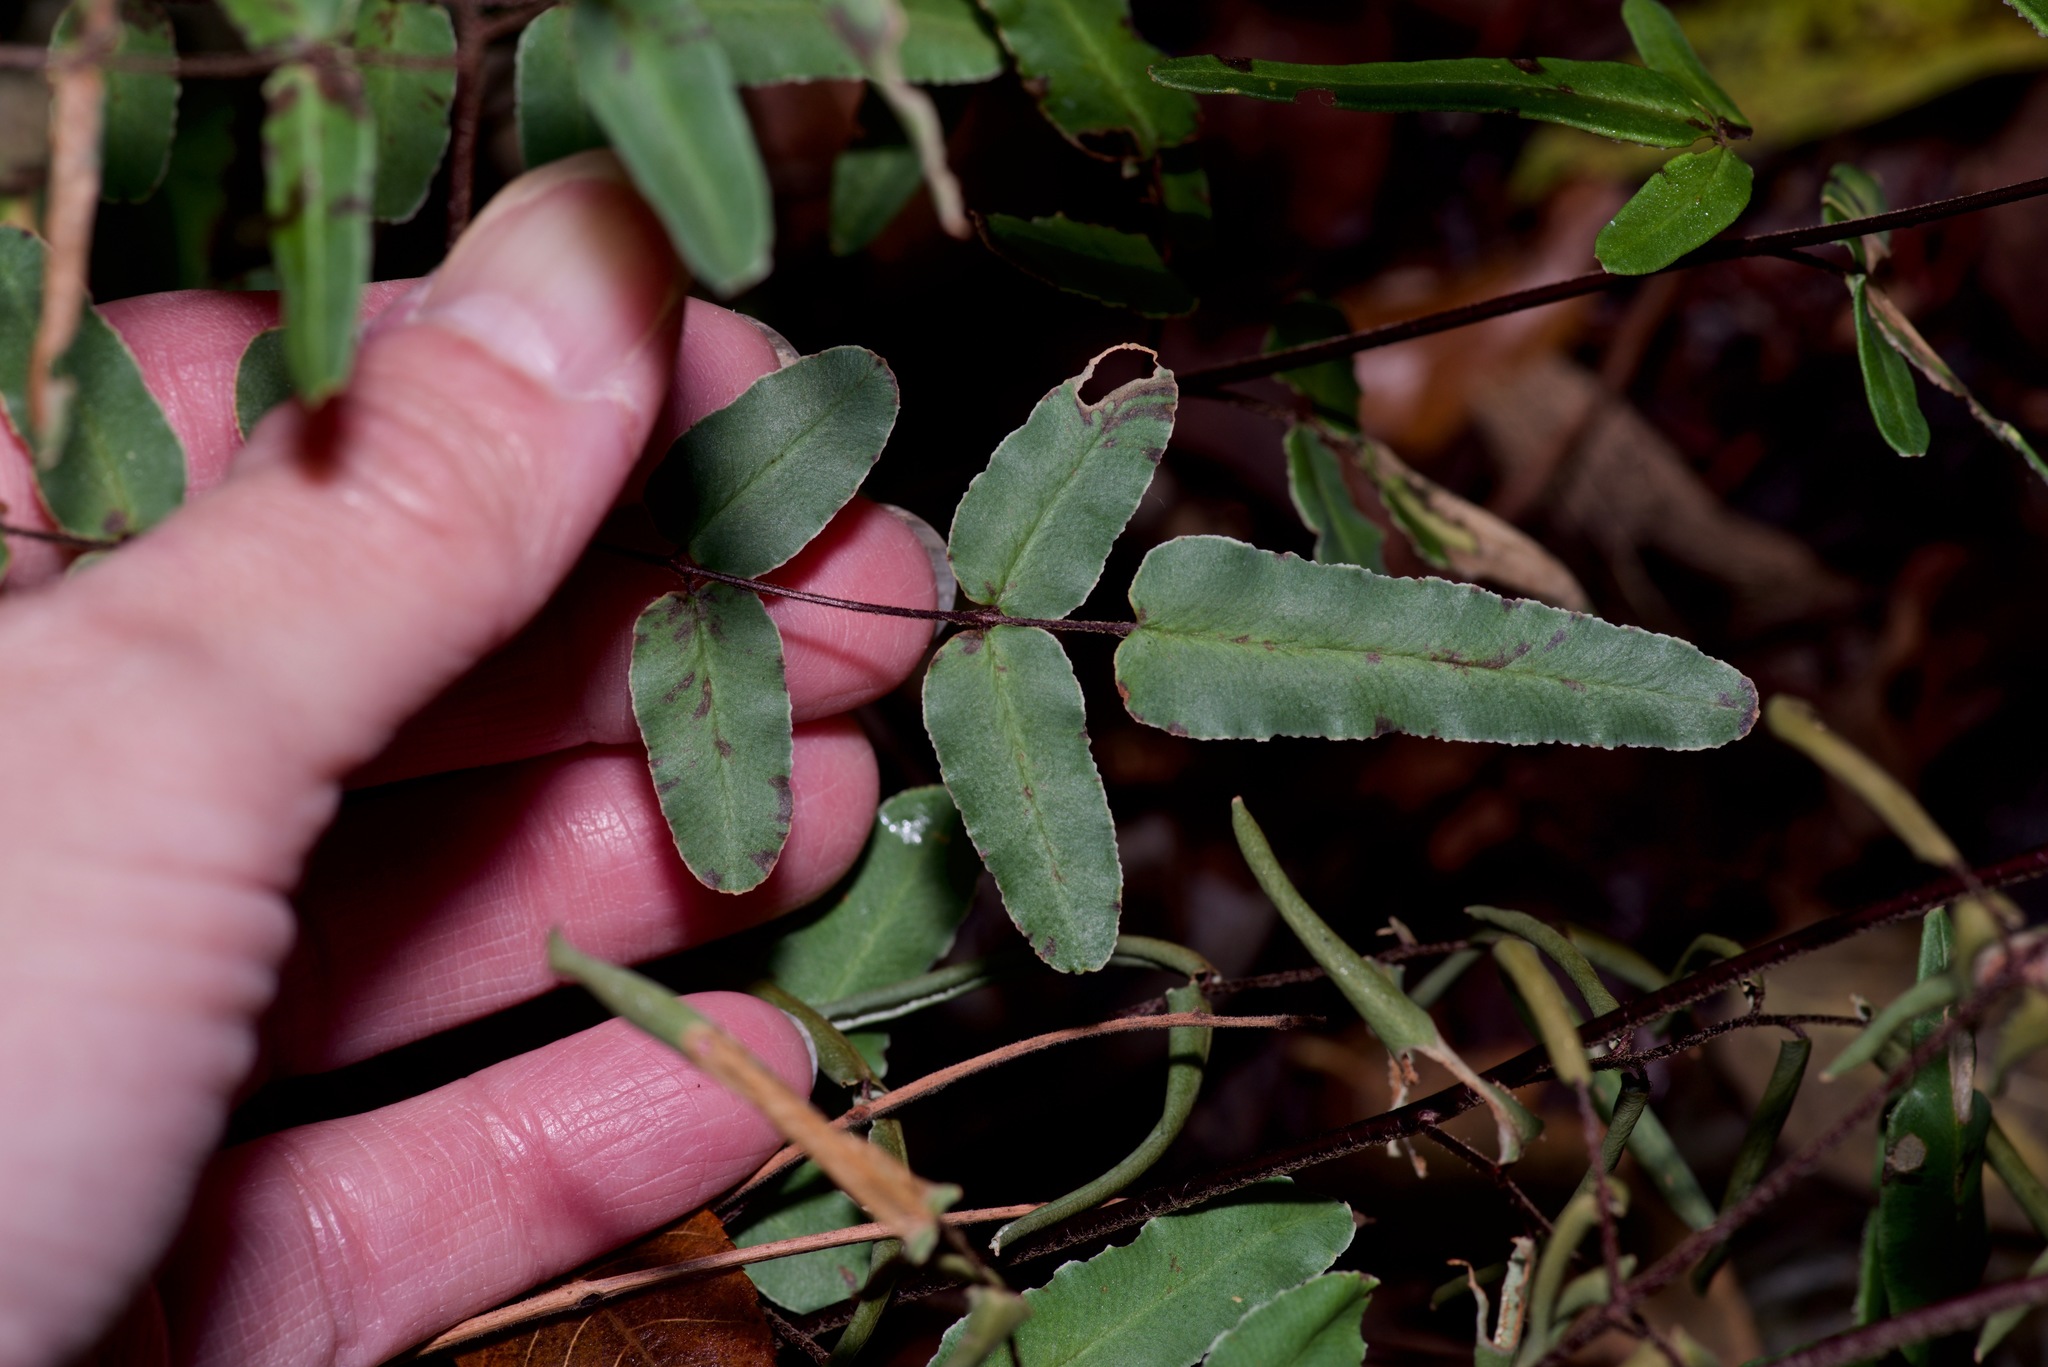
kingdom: Plantae
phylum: Tracheophyta
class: Polypodiopsida
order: Polypodiales
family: Pteridaceae
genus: Pellaea
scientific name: Pellaea atropurpurea
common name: Hairy cliffbrake
